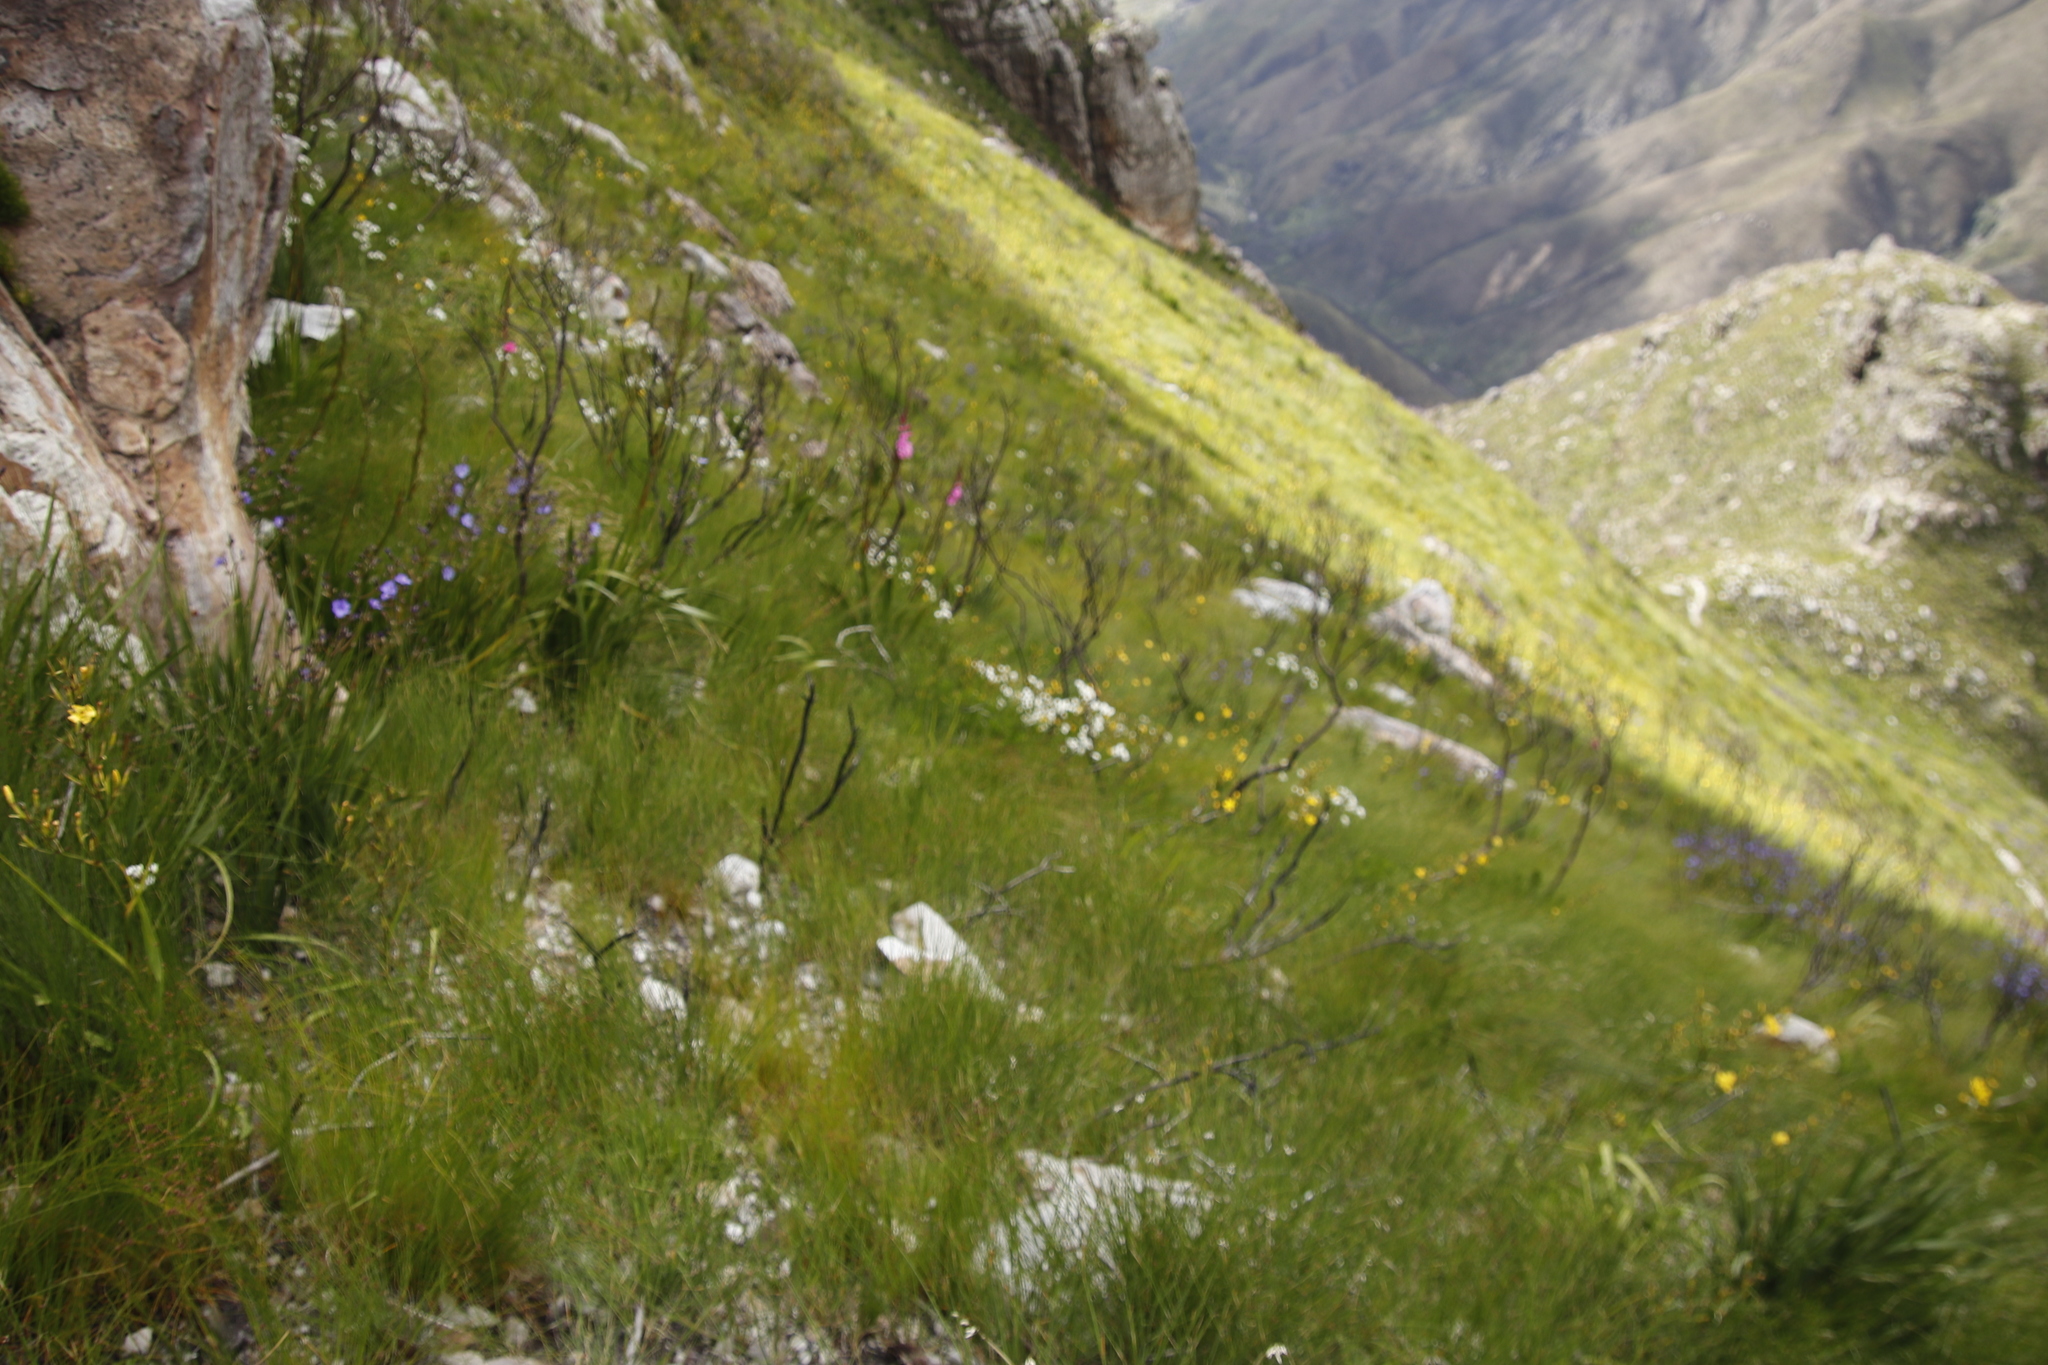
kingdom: Plantae
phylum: Tracheophyta
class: Liliopsida
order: Asparagales
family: Iridaceae
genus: Moraea
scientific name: Moraea ramosissima
